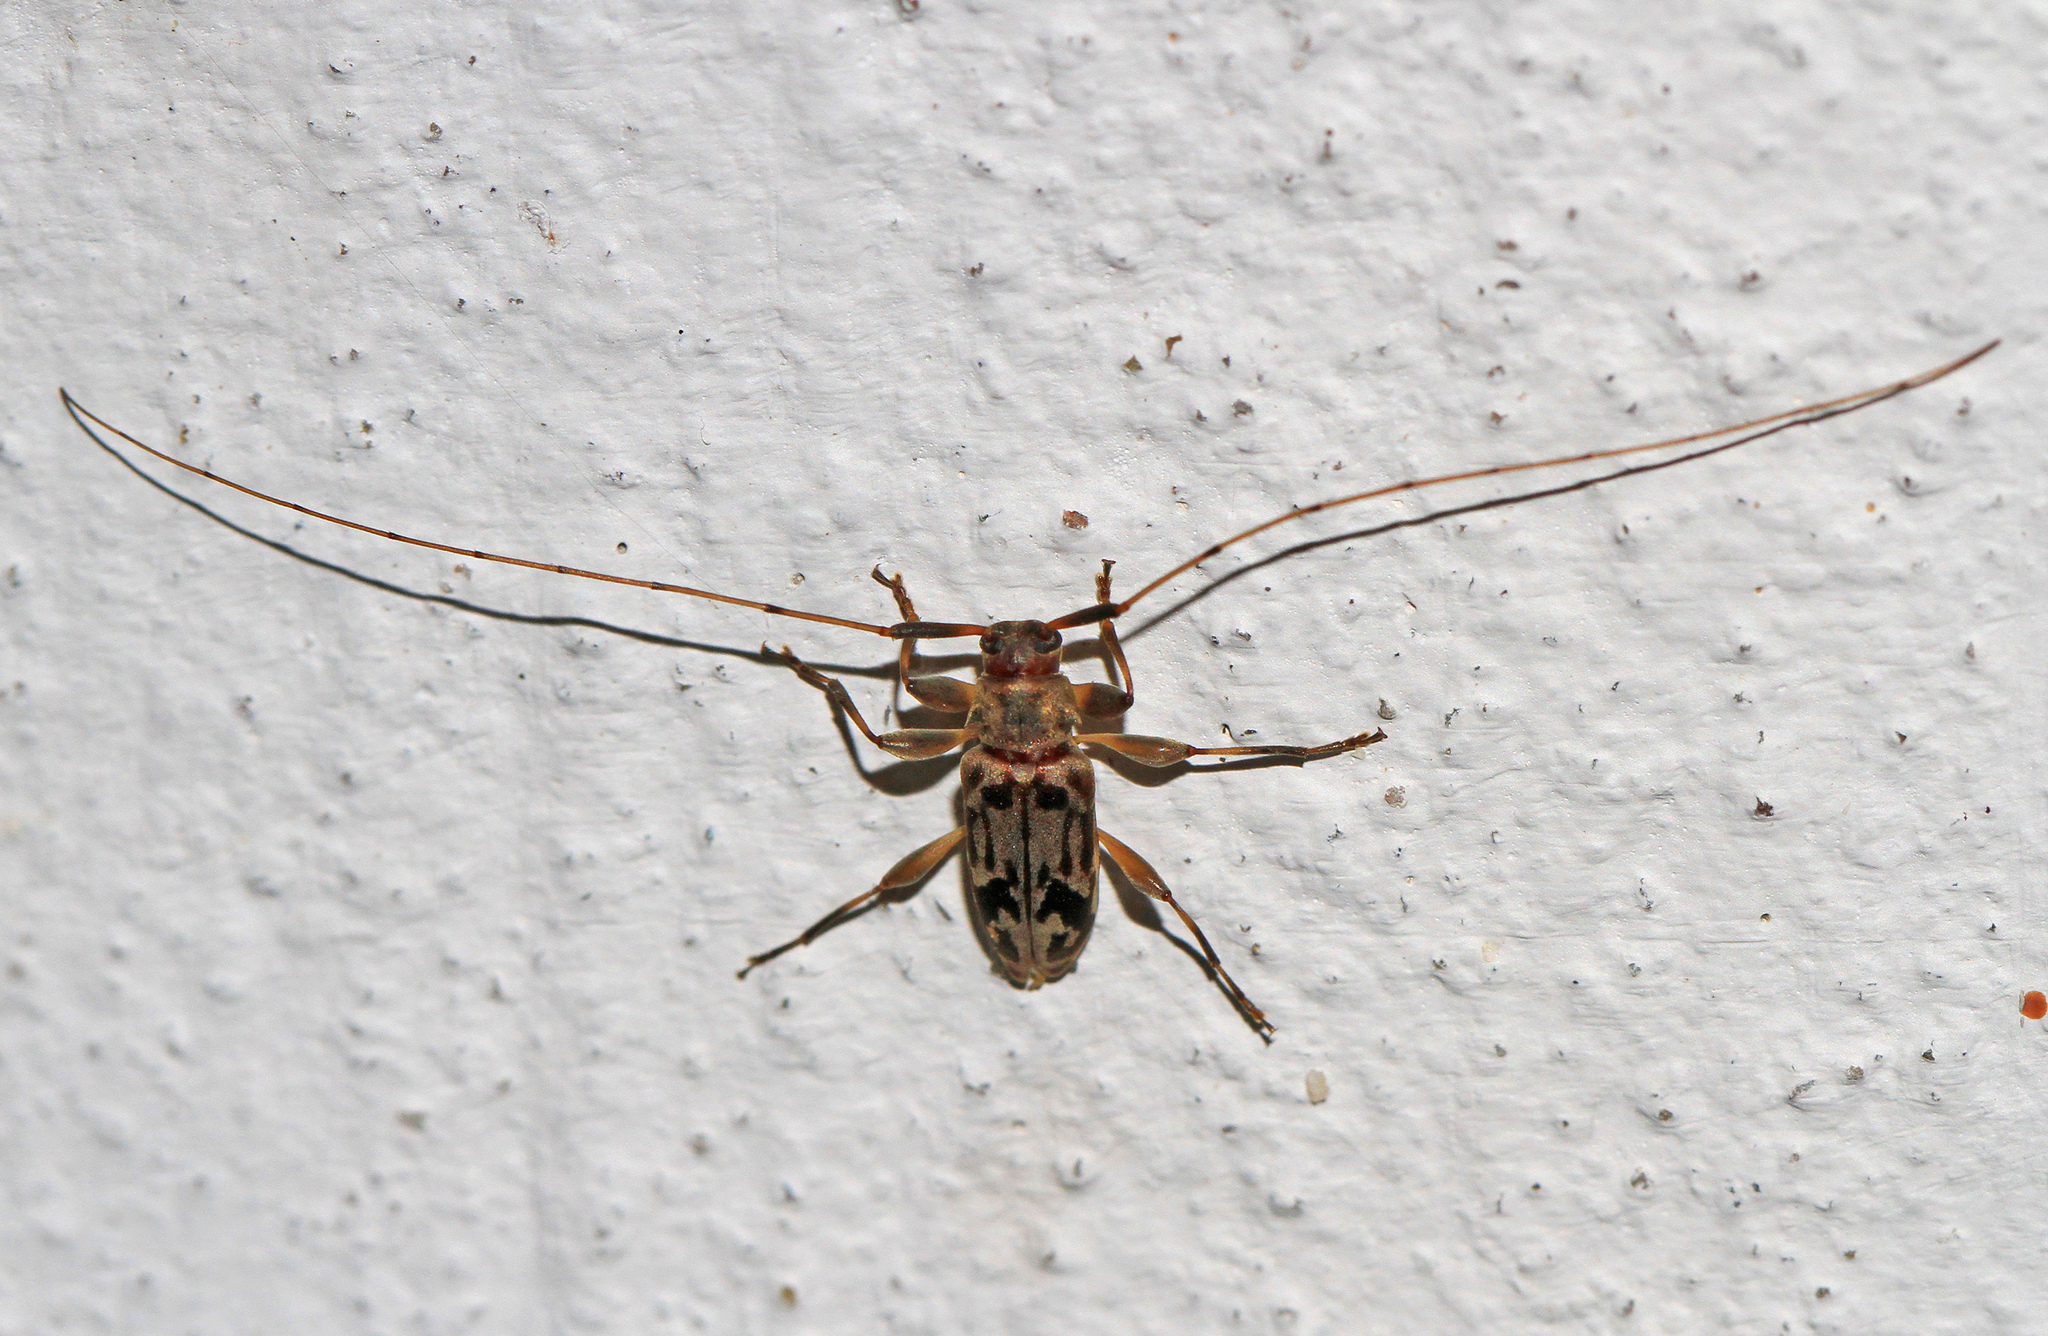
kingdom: Animalia
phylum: Arthropoda
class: Insecta
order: Coleoptera
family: Cerambycidae
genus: Urgleptes
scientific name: Urgleptes signatus
